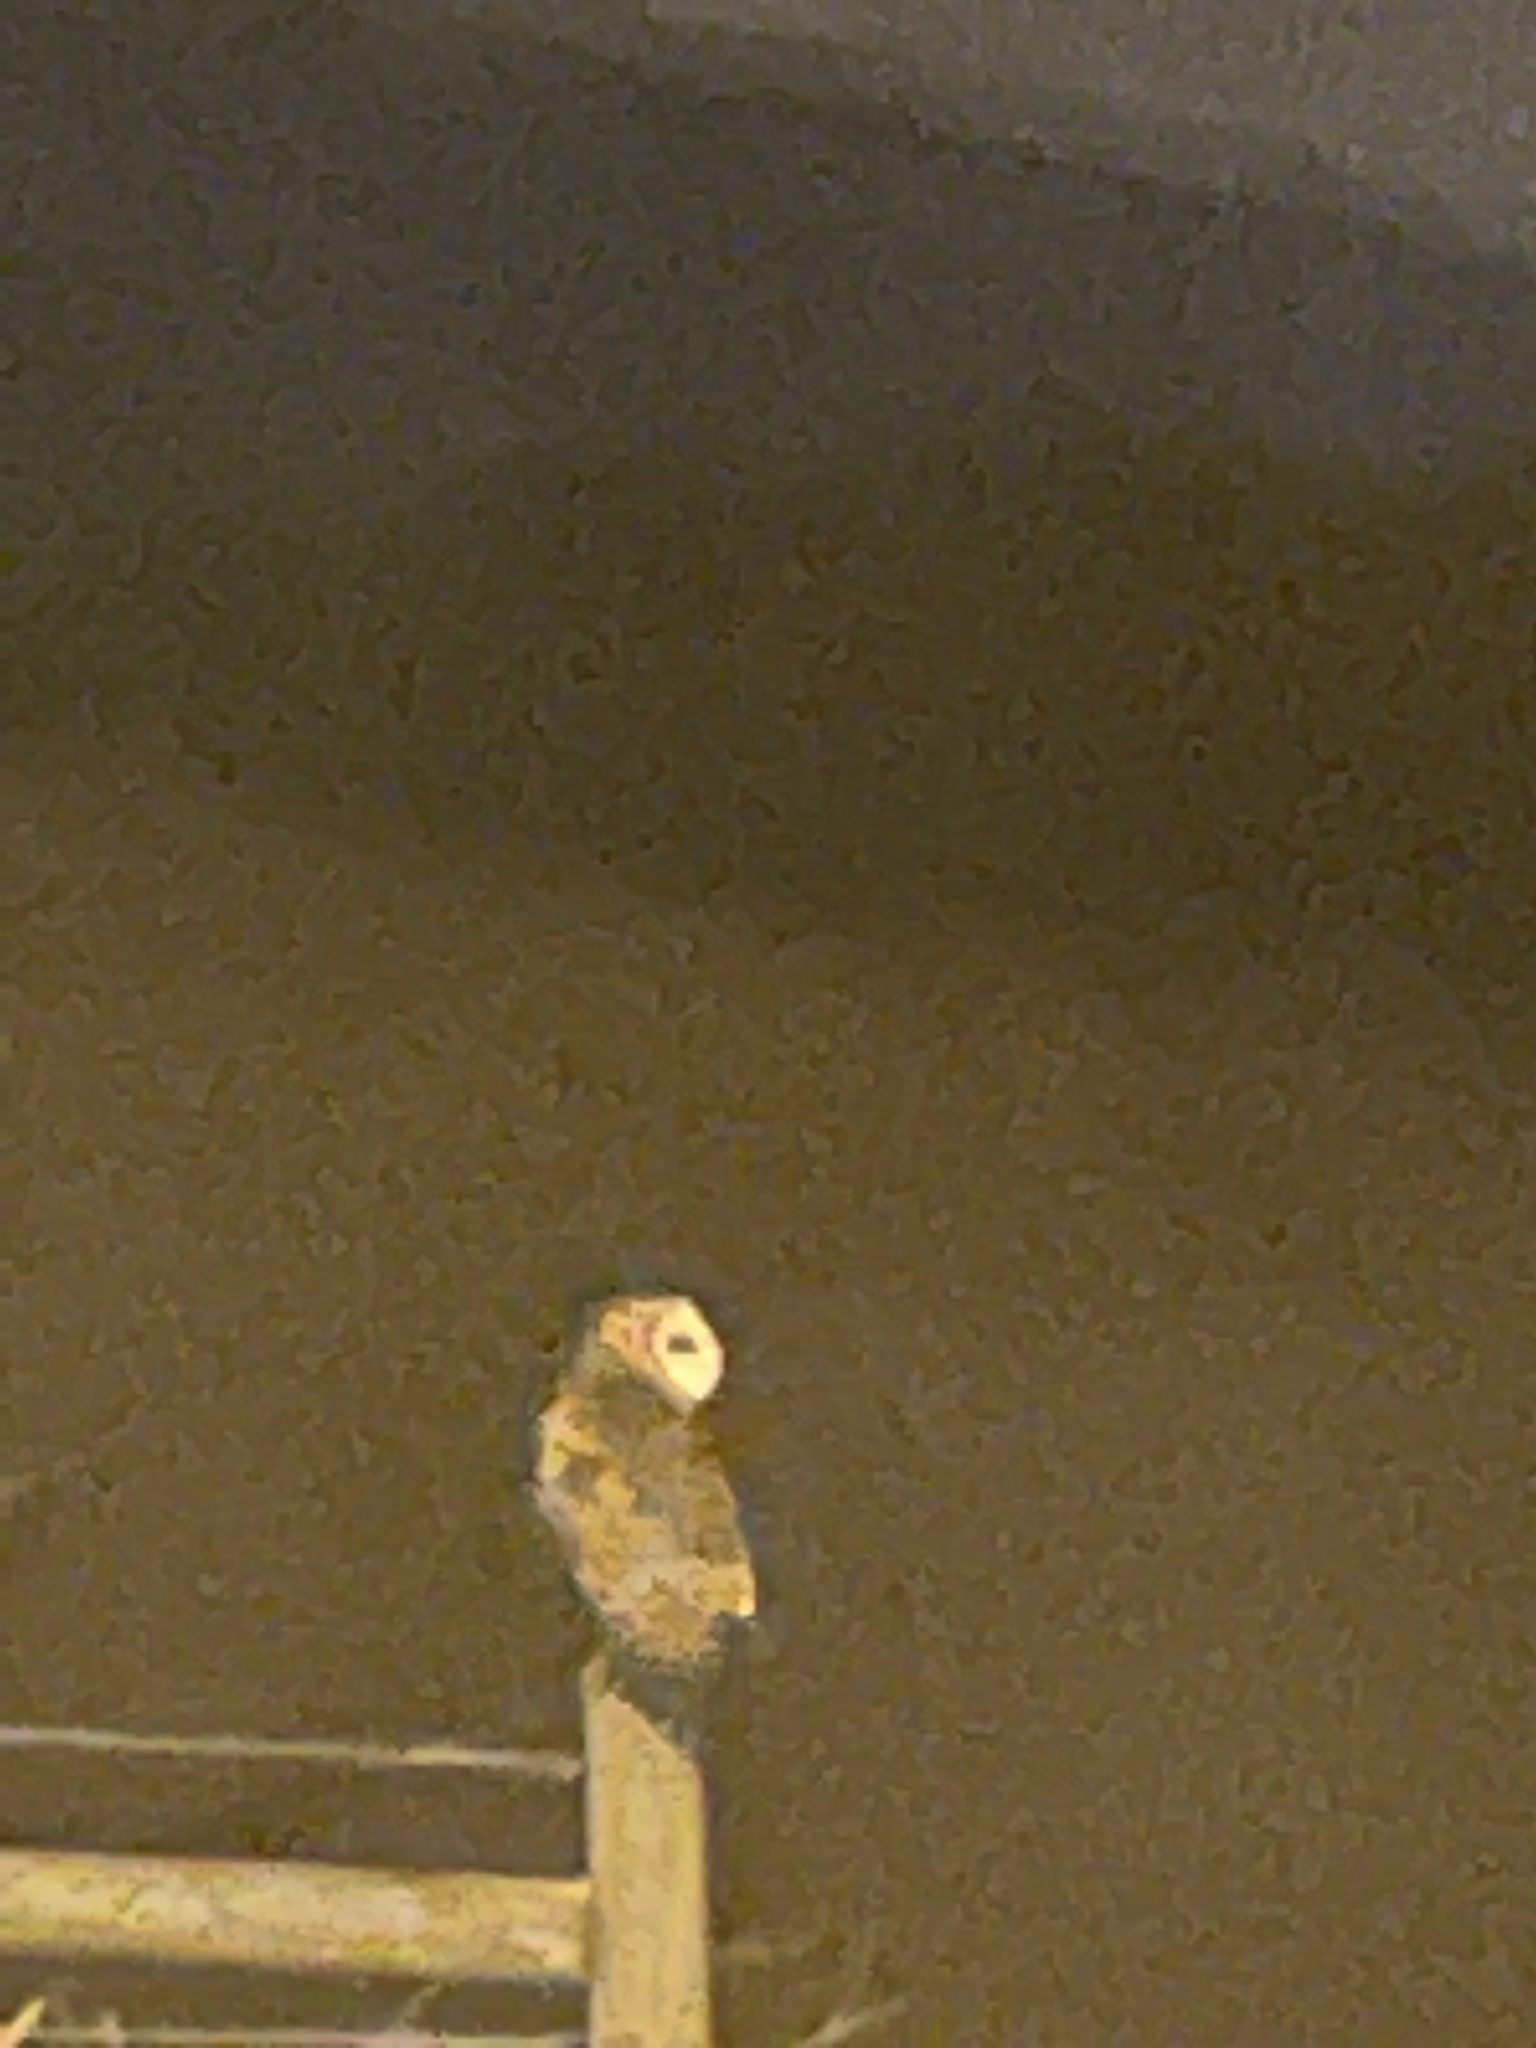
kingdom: Animalia
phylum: Chordata
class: Aves
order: Strigiformes
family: Tytonidae
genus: Tyto
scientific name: Tyto alba
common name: Barn owl
